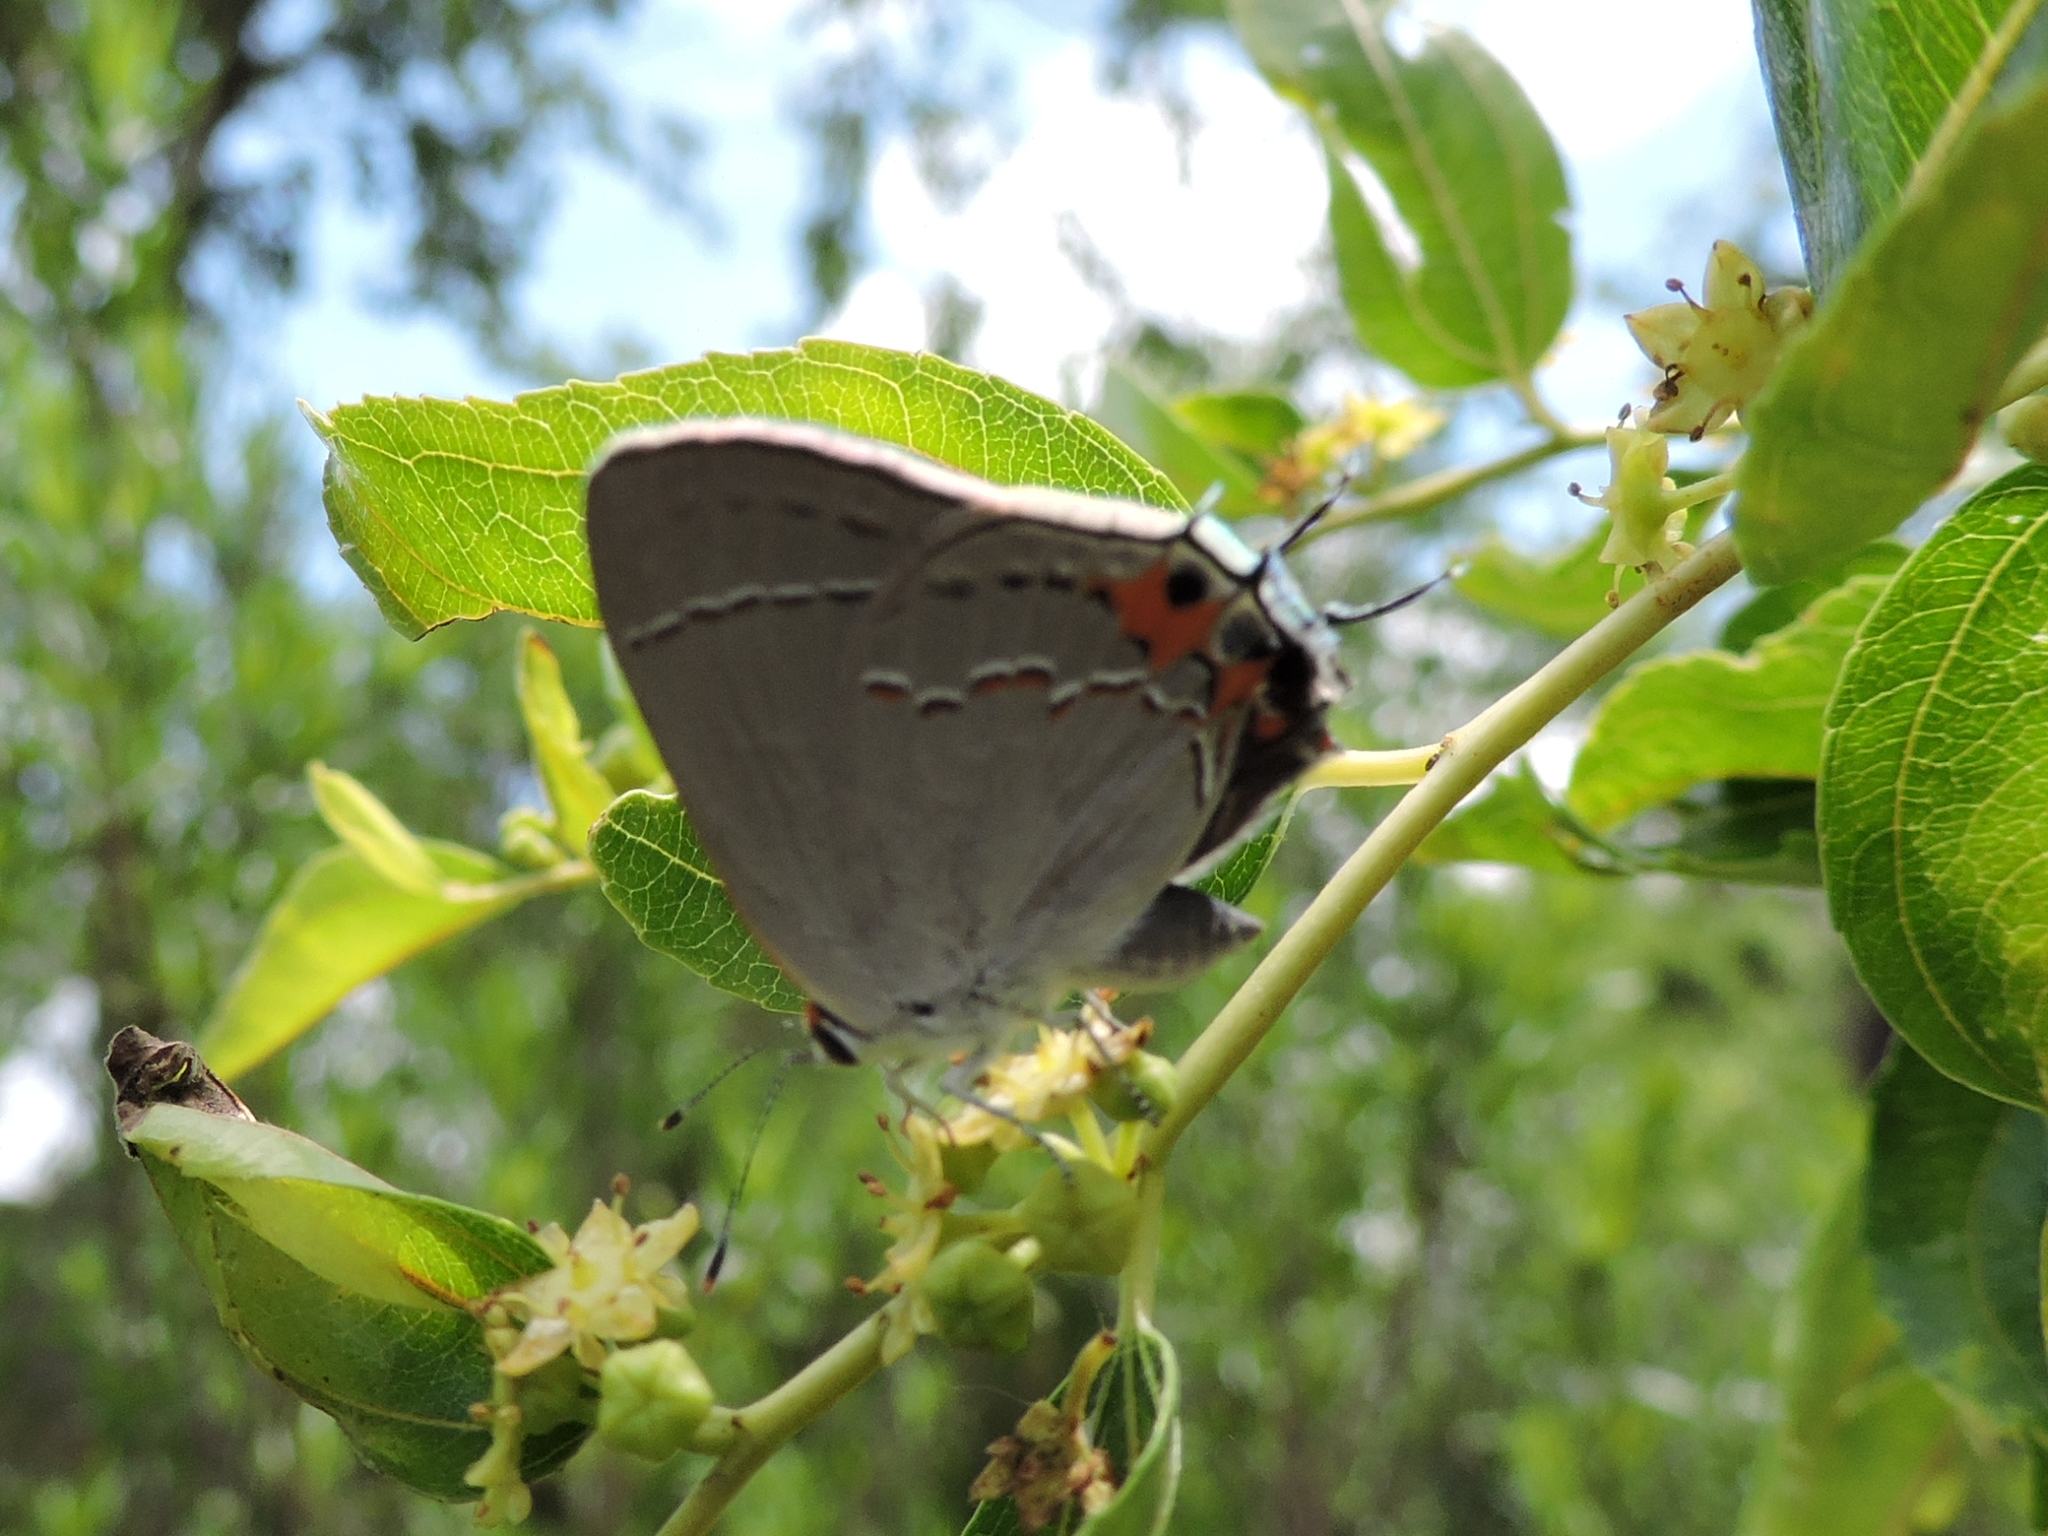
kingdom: Animalia
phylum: Arthropoda
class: Insecta
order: Lepidoptera
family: Lycaenidae
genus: Strymon
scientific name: Strymon melinus
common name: Gray hairstreak
